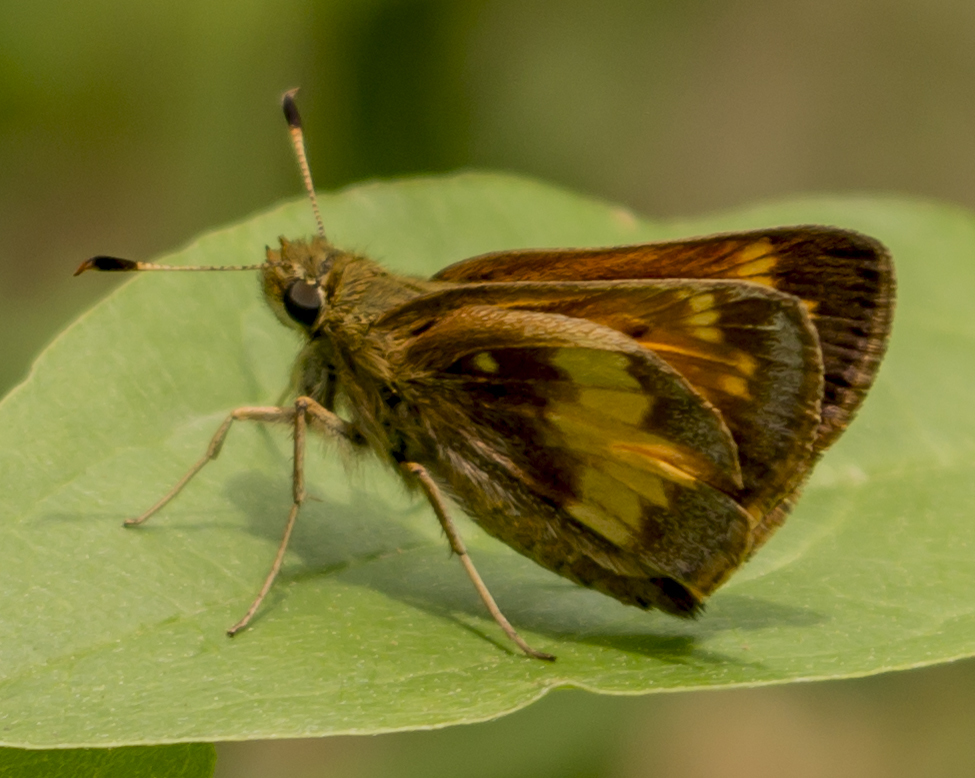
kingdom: Animalia
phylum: Arthropoda
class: Insecta
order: Lepidoptera
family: Hesperiidae
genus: Lon
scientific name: Lon hobomok
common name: Hobomok skipper
